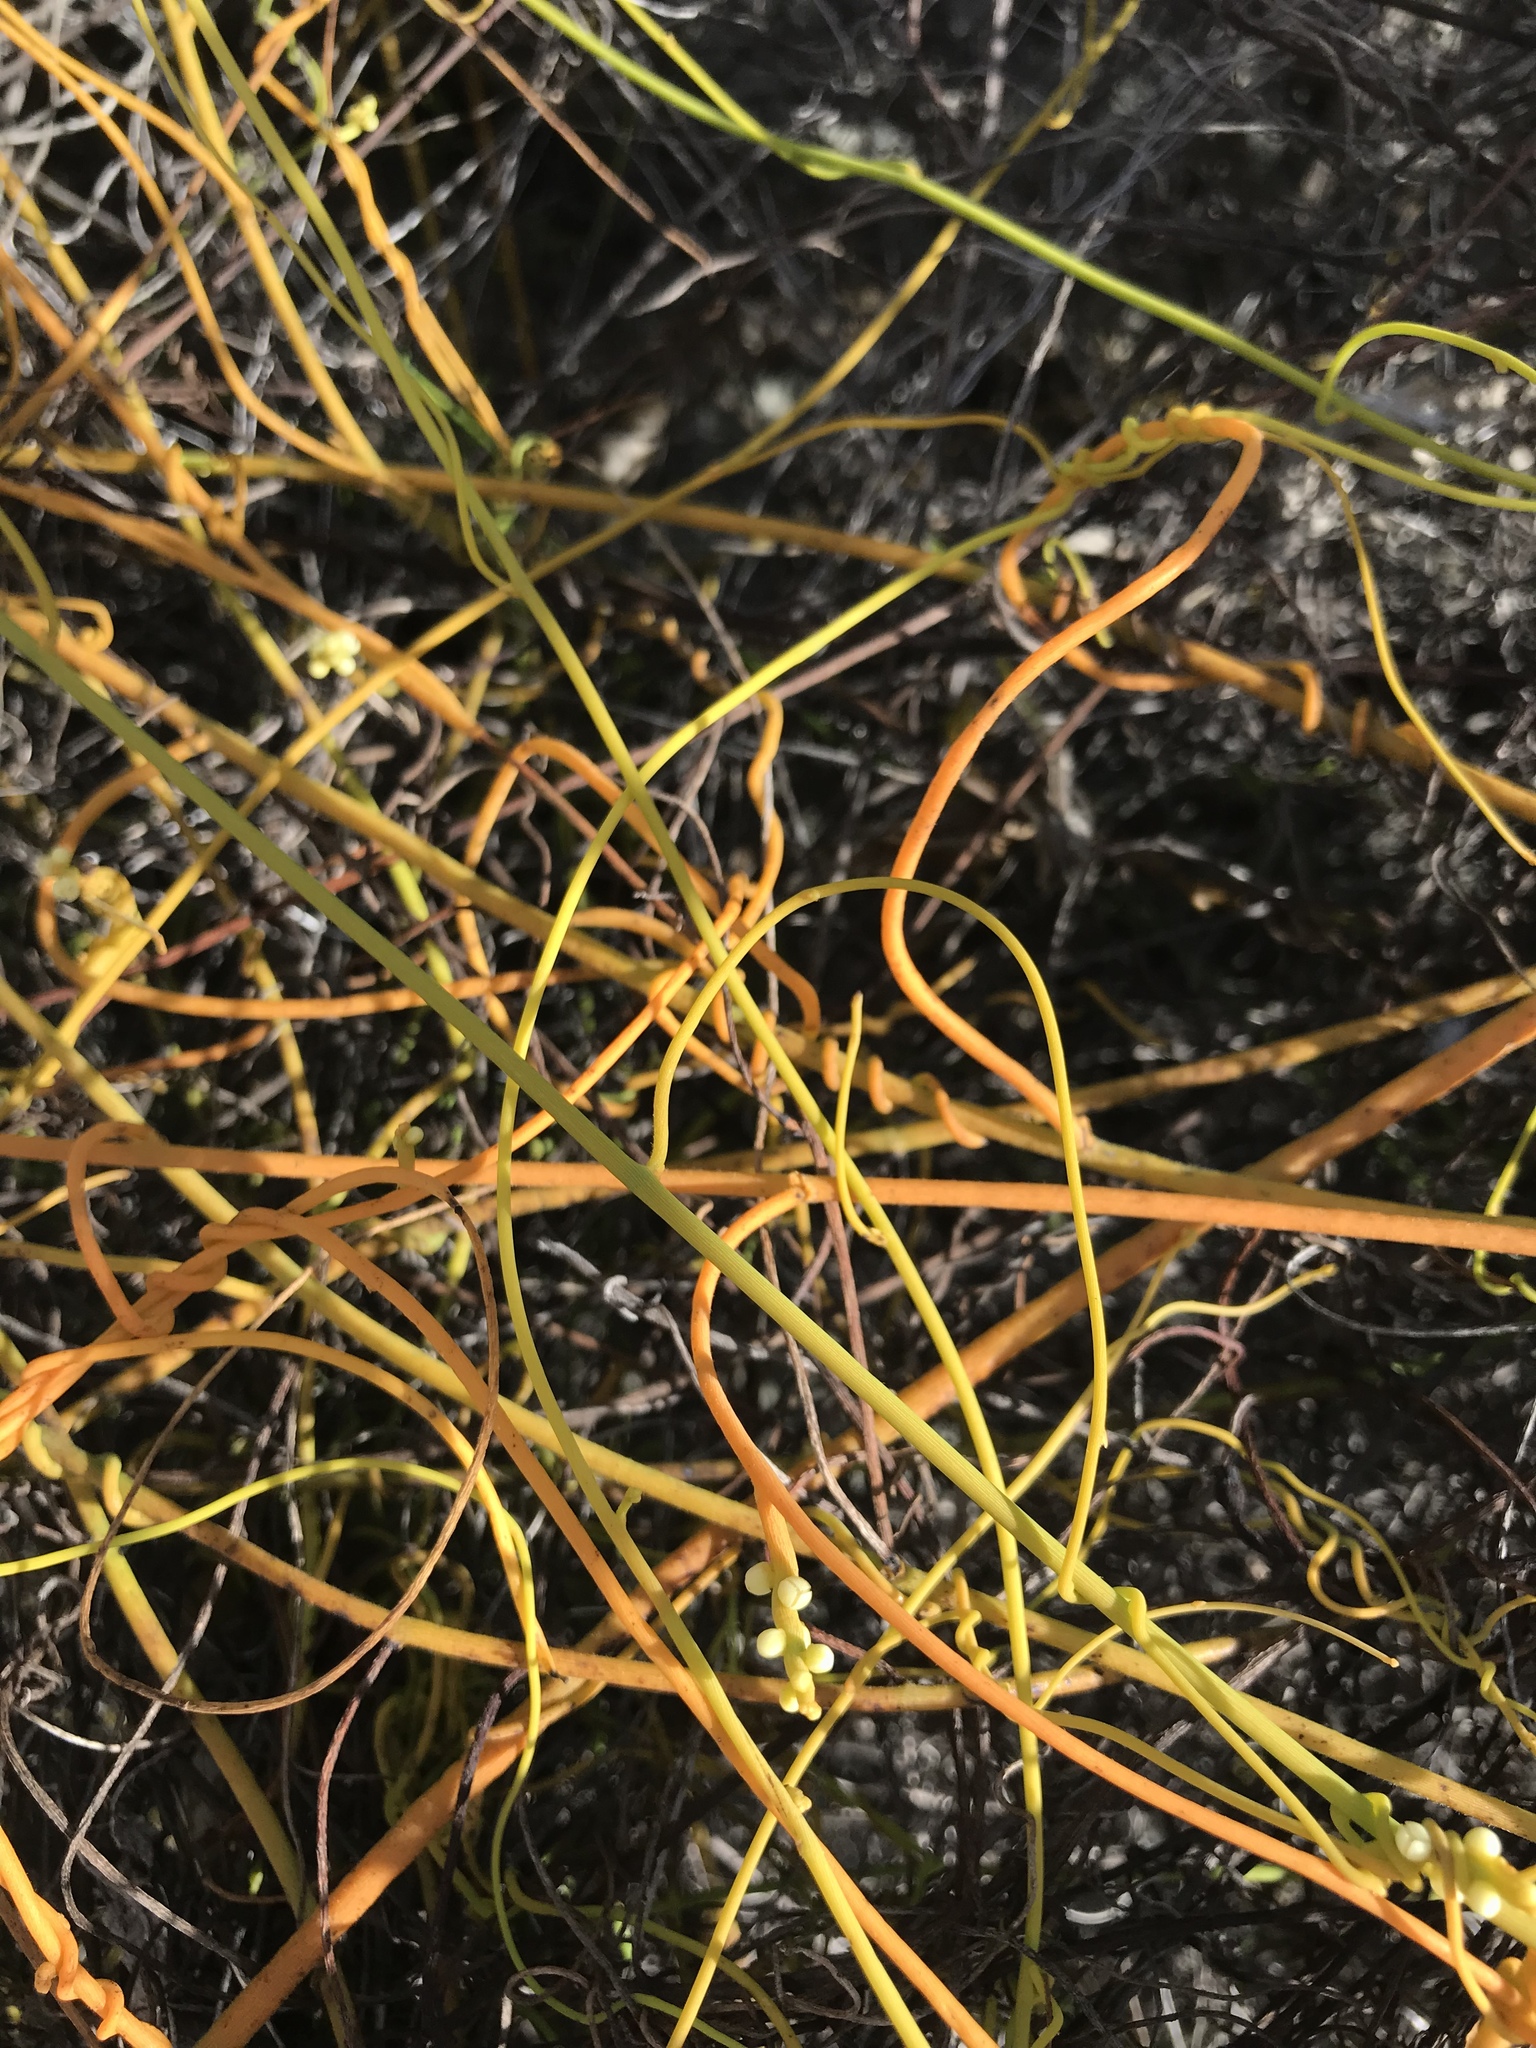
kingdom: Plantae
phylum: Tracheophyta
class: Magnoliopsida
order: Laurales
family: Lauraceae
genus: Cassytha
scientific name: Cassytha filiformis
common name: Dodder-laurel
